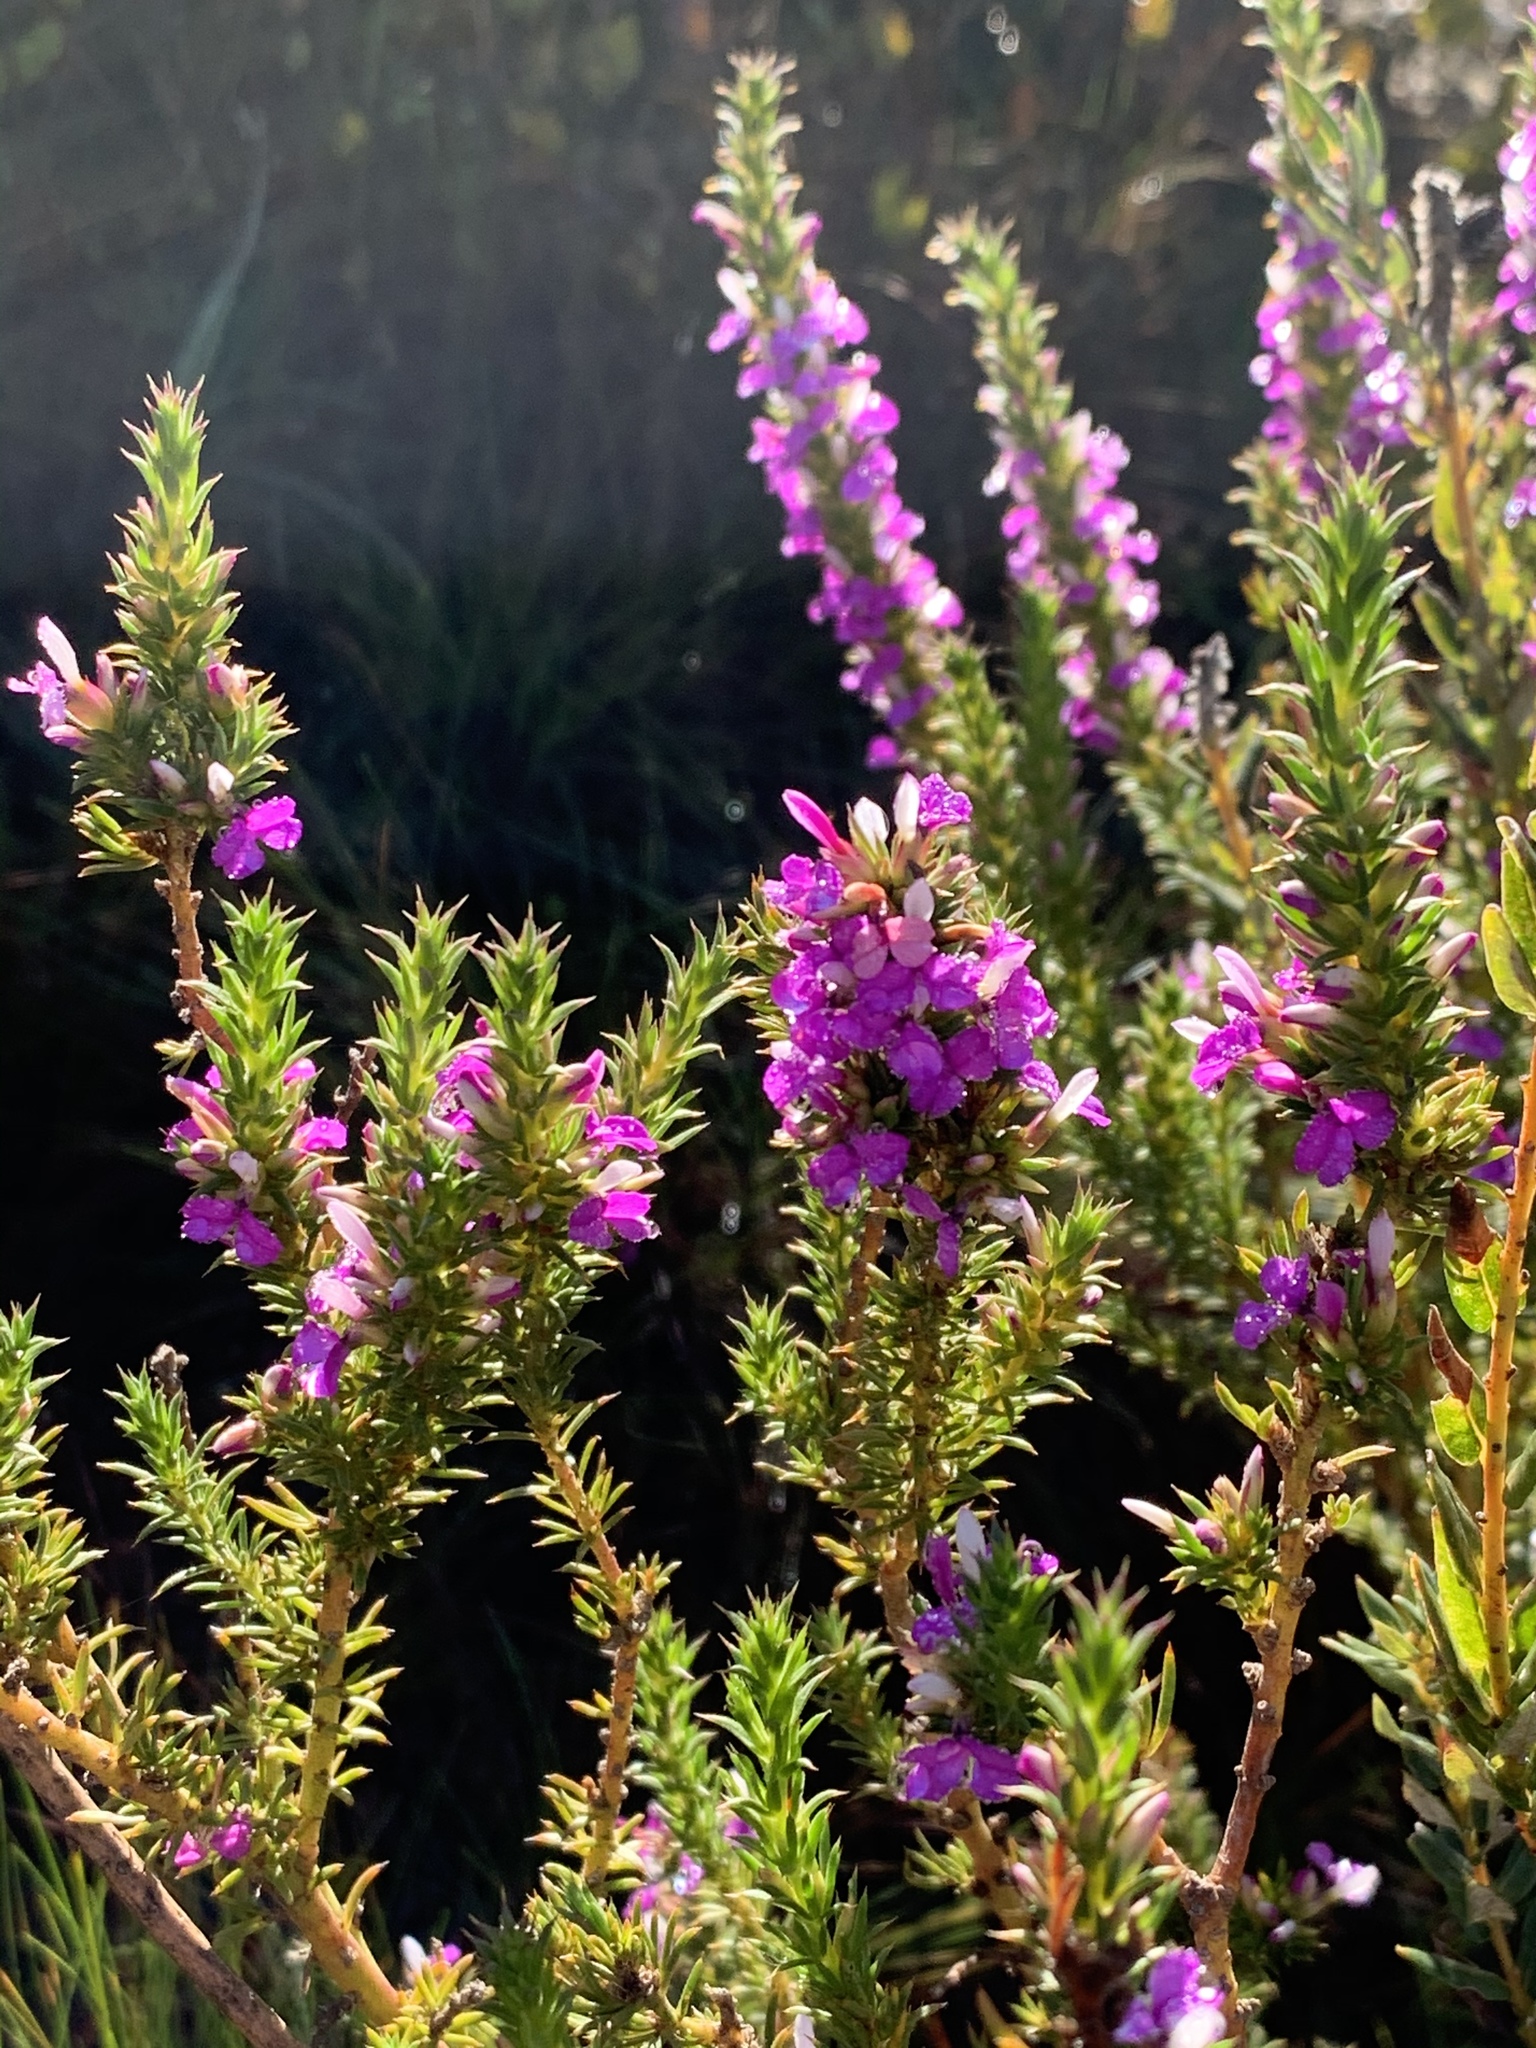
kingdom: Plantae
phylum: Tracheophyta
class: Magnoliopsida
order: Fabales
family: Polygalaceae
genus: Muraltia
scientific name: Muraltia heisteria
